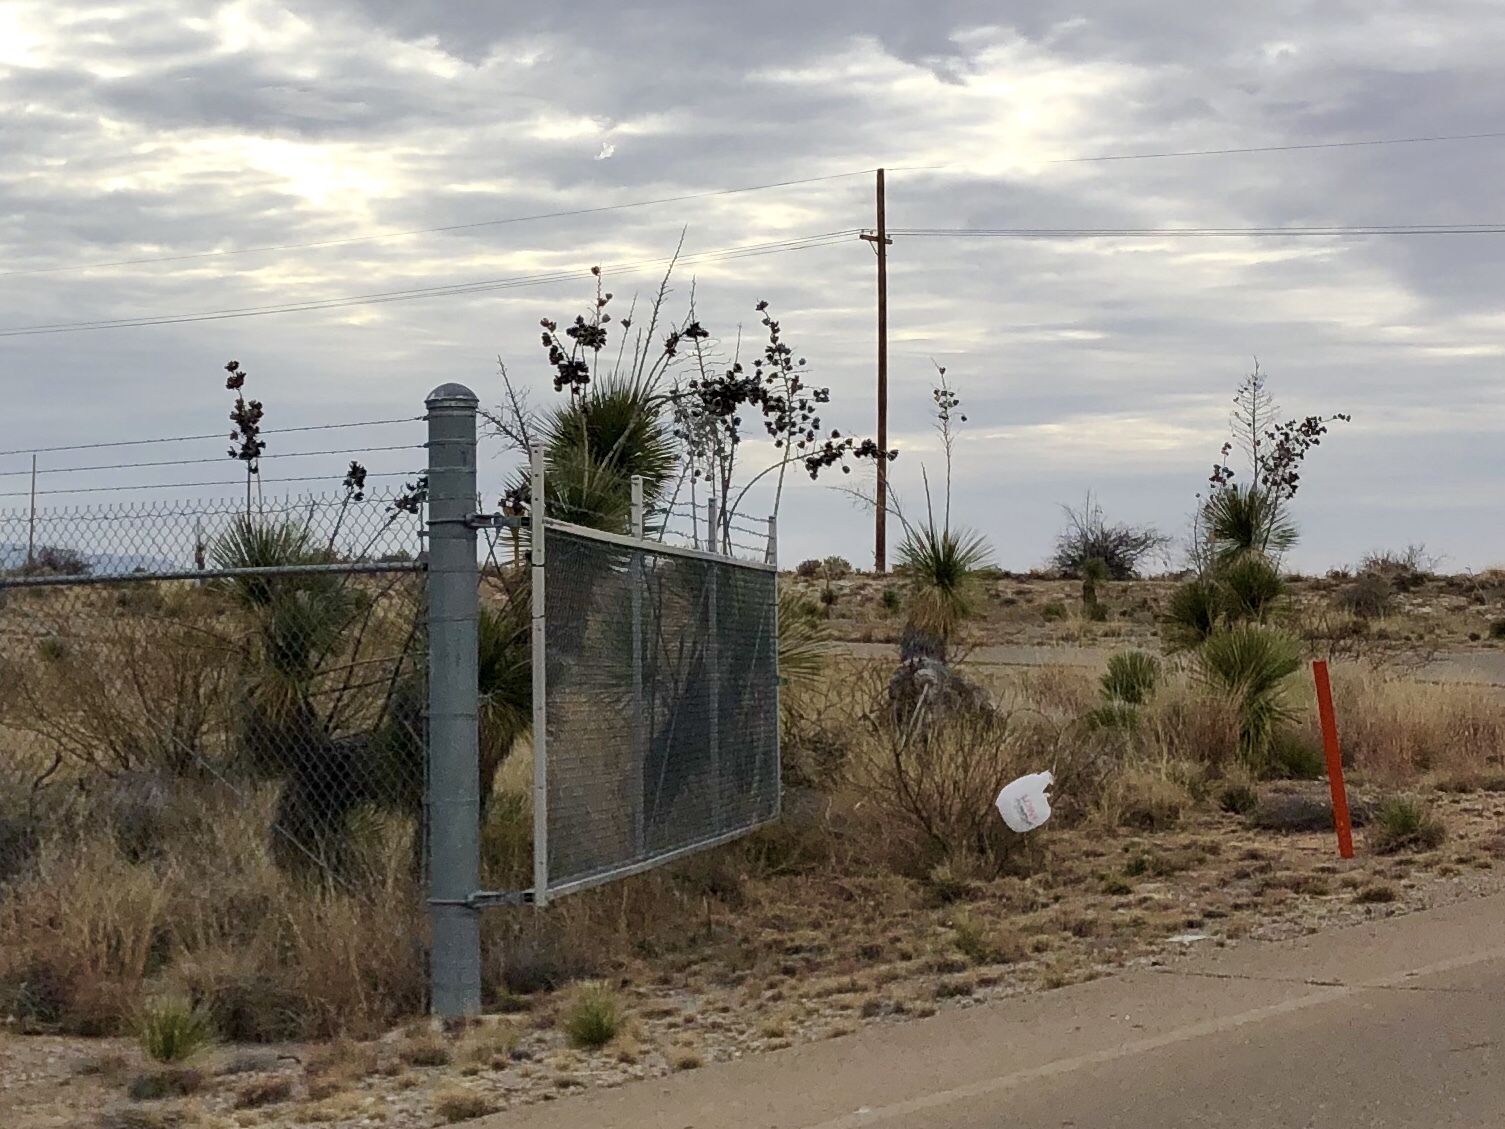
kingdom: Plantae
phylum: Tracheophyta
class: Liliopsida
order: Asparagales
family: Asparagaceae
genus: Yucca
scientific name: Yucca elata
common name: Palmella
